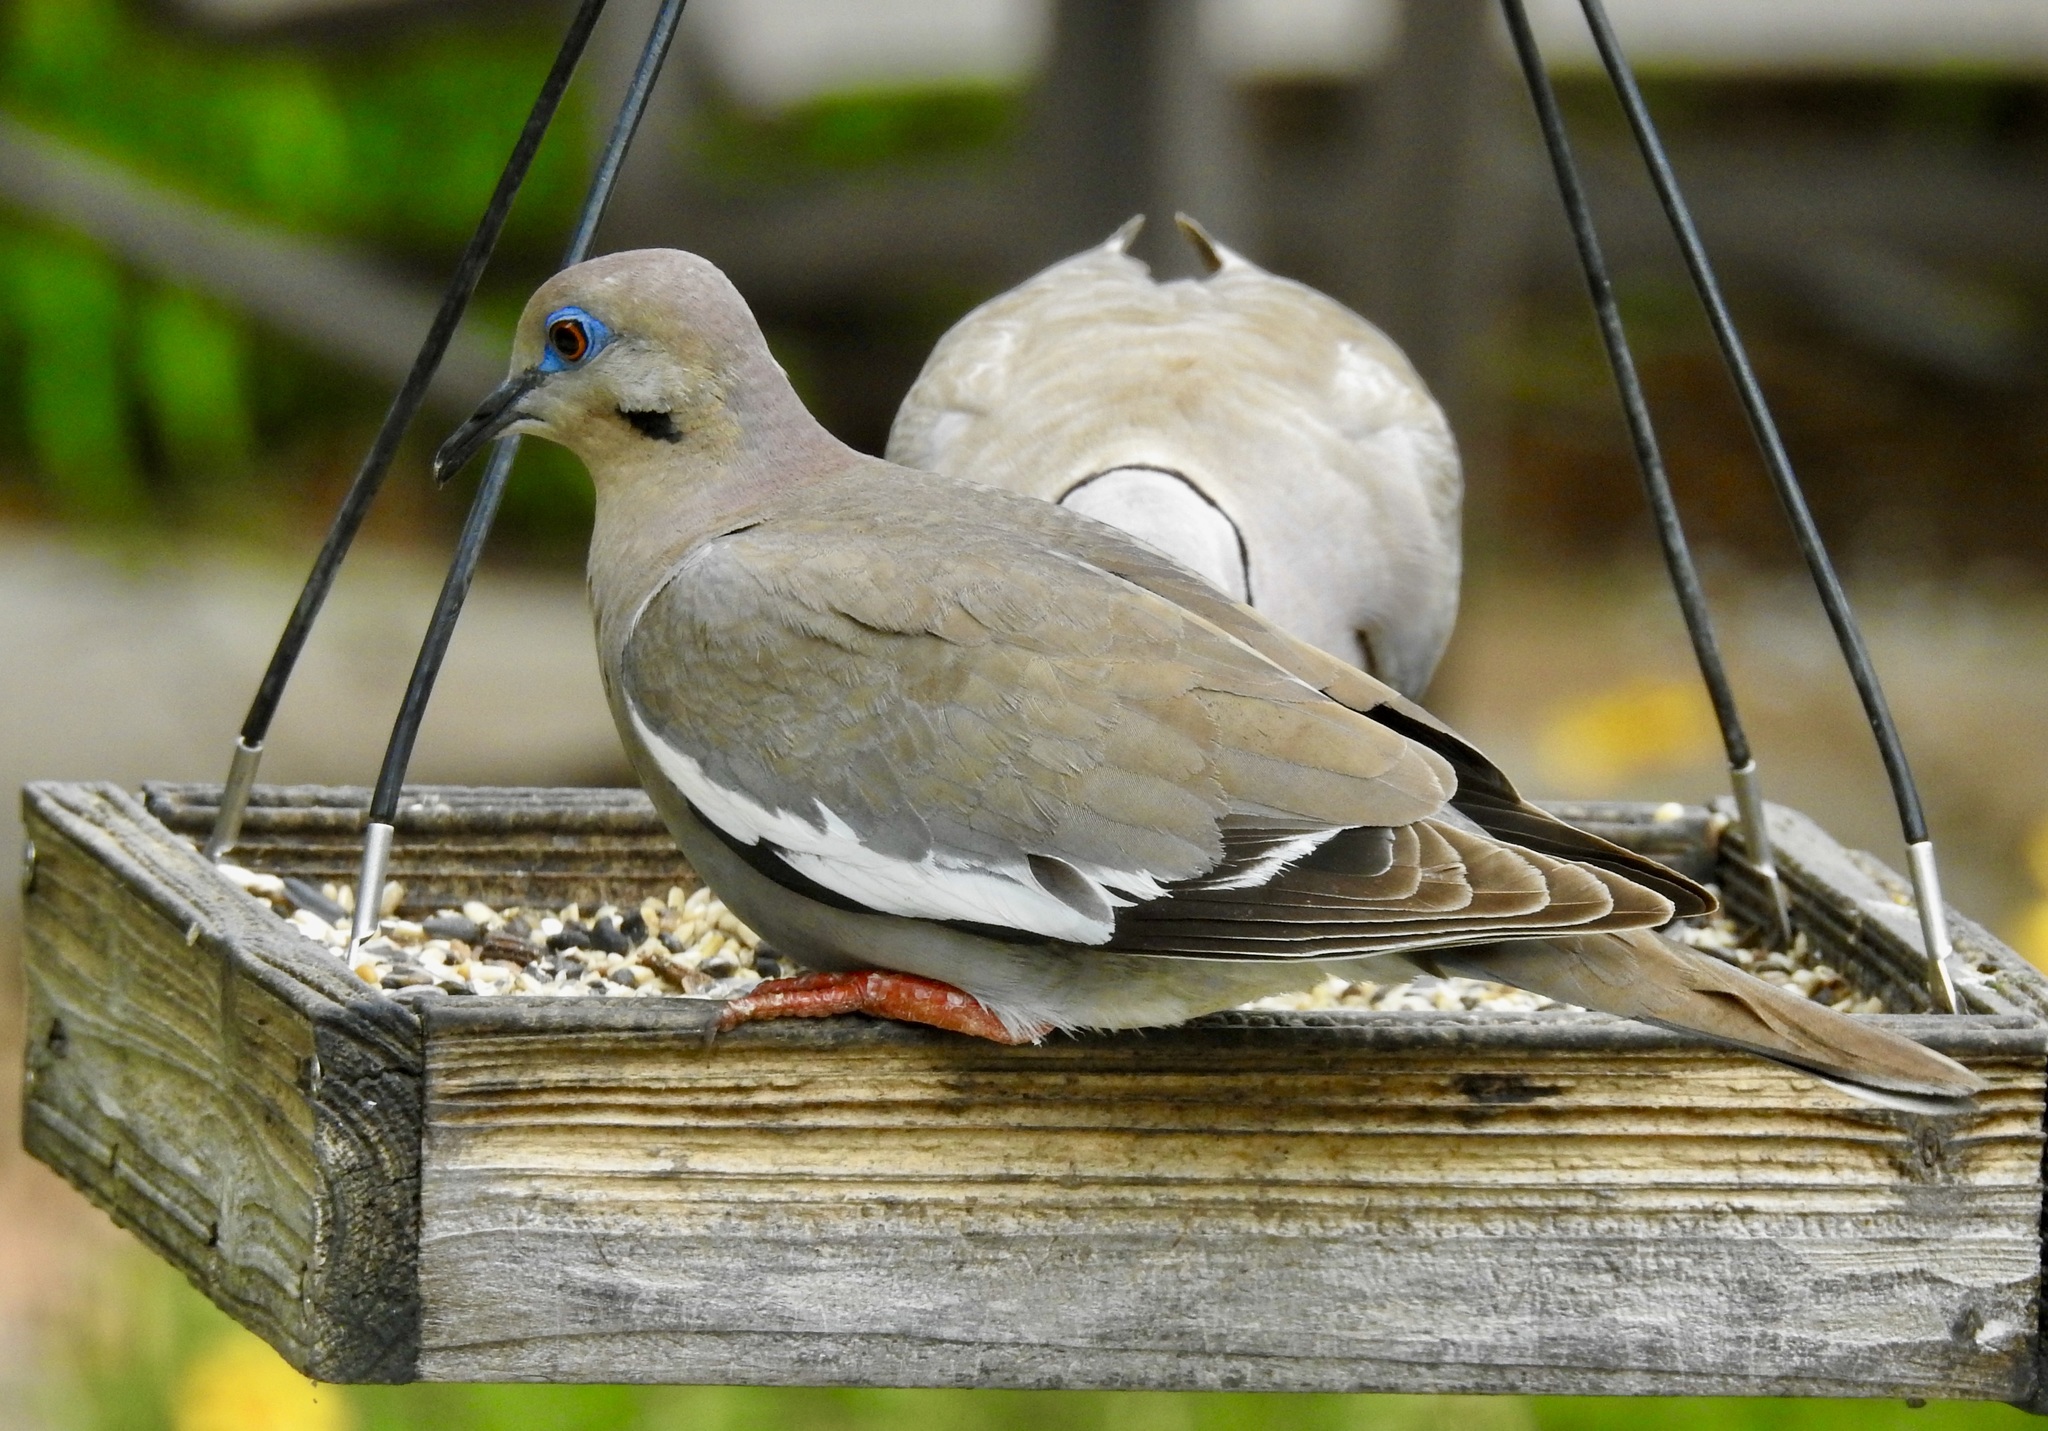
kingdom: Animalia
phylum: Chordata
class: Aves
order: Columbiformes
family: Columbidae
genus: Zenaida
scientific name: Zenaida asiatica
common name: White-winged dove
